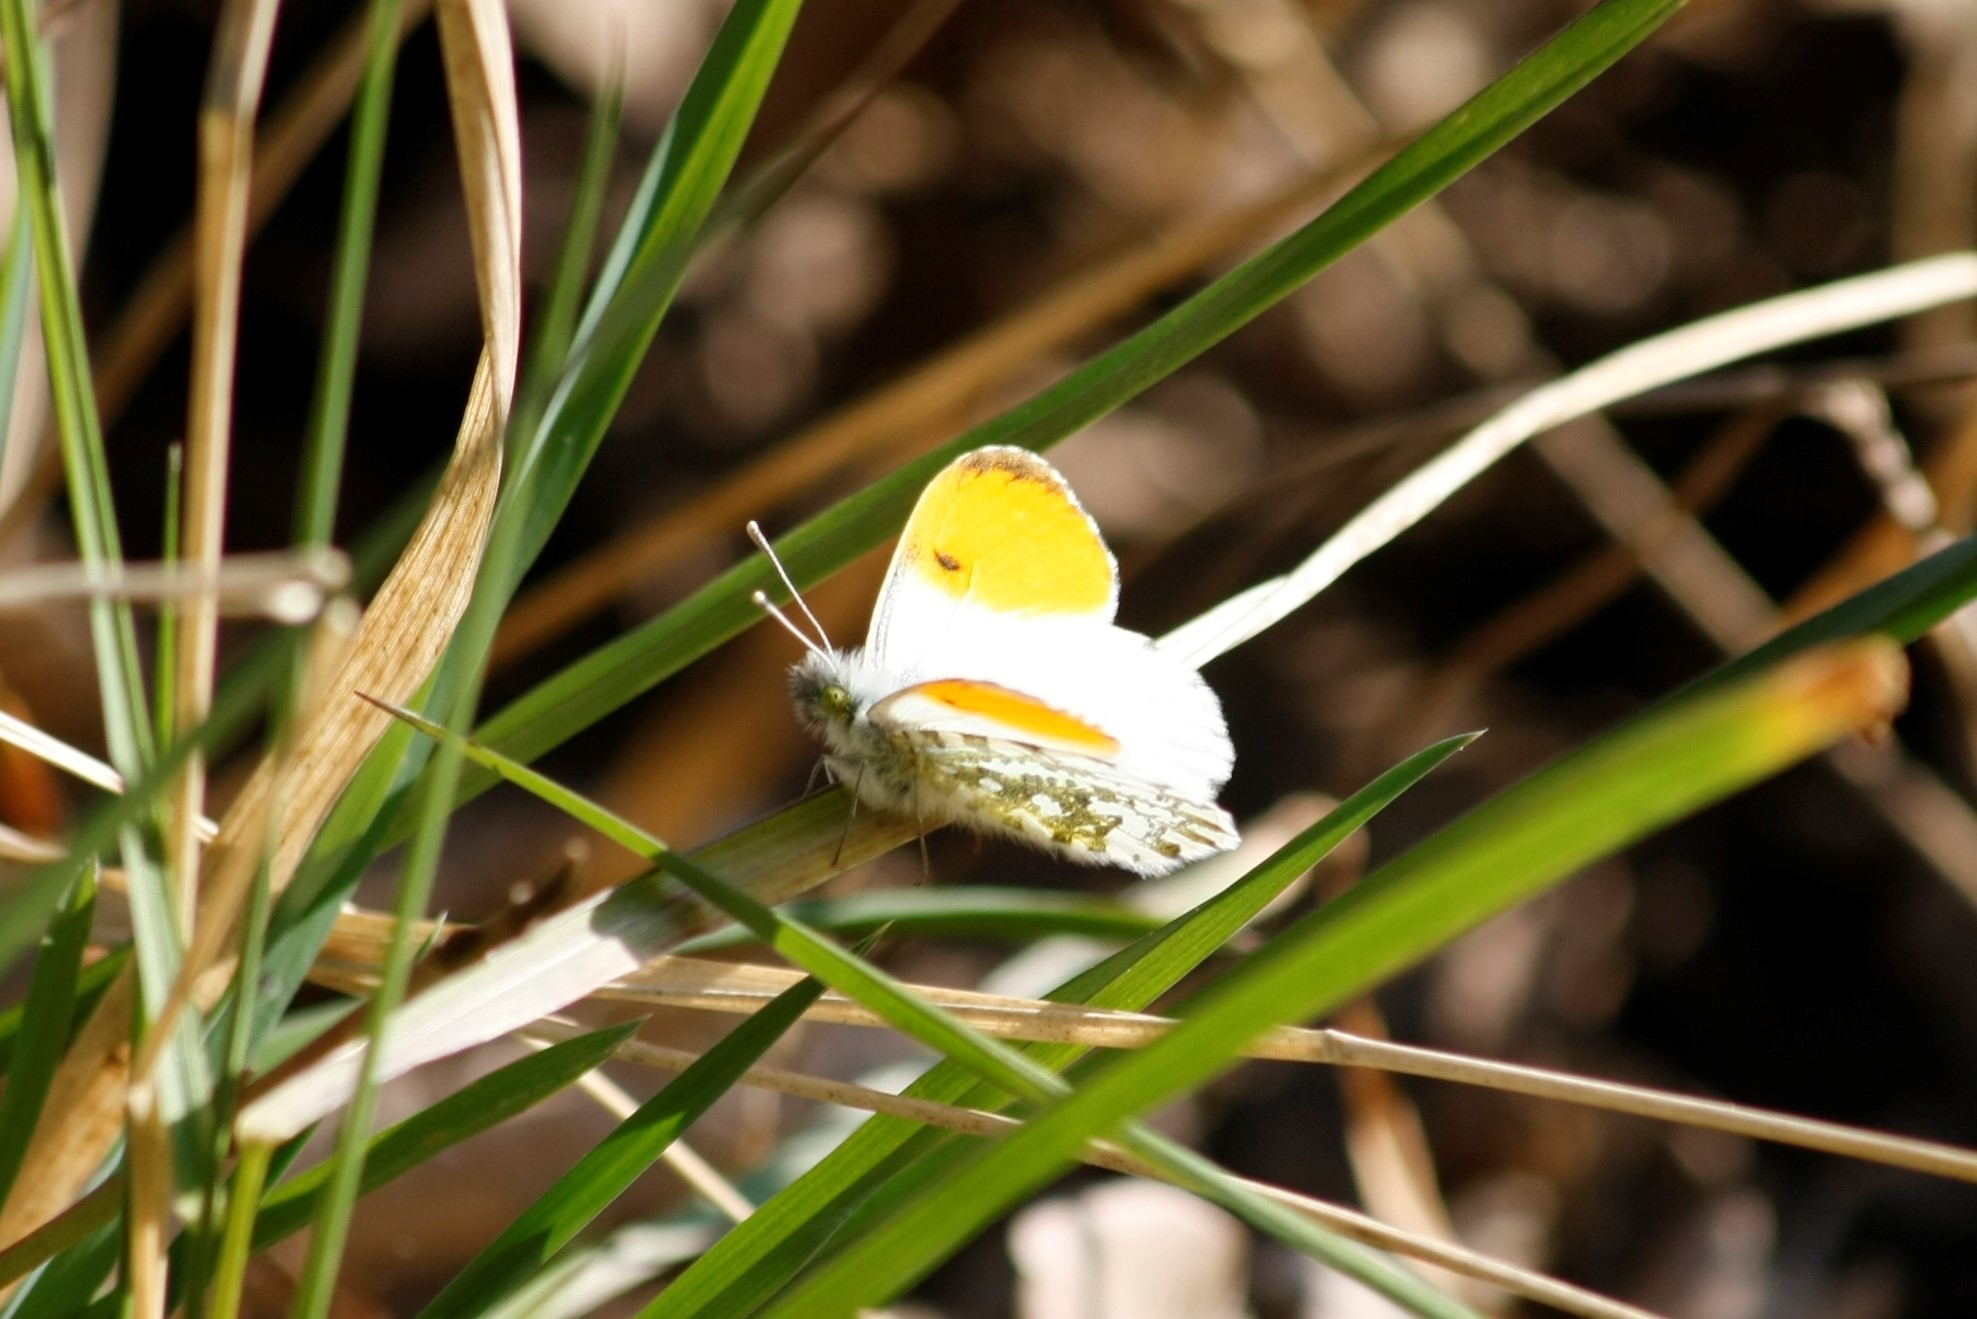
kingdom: Animalia
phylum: Arthropoda
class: Insecta
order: Lepidoptera
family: Pieridae
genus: Anthocharis
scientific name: Anthocharis cardamines
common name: Orange-tip
